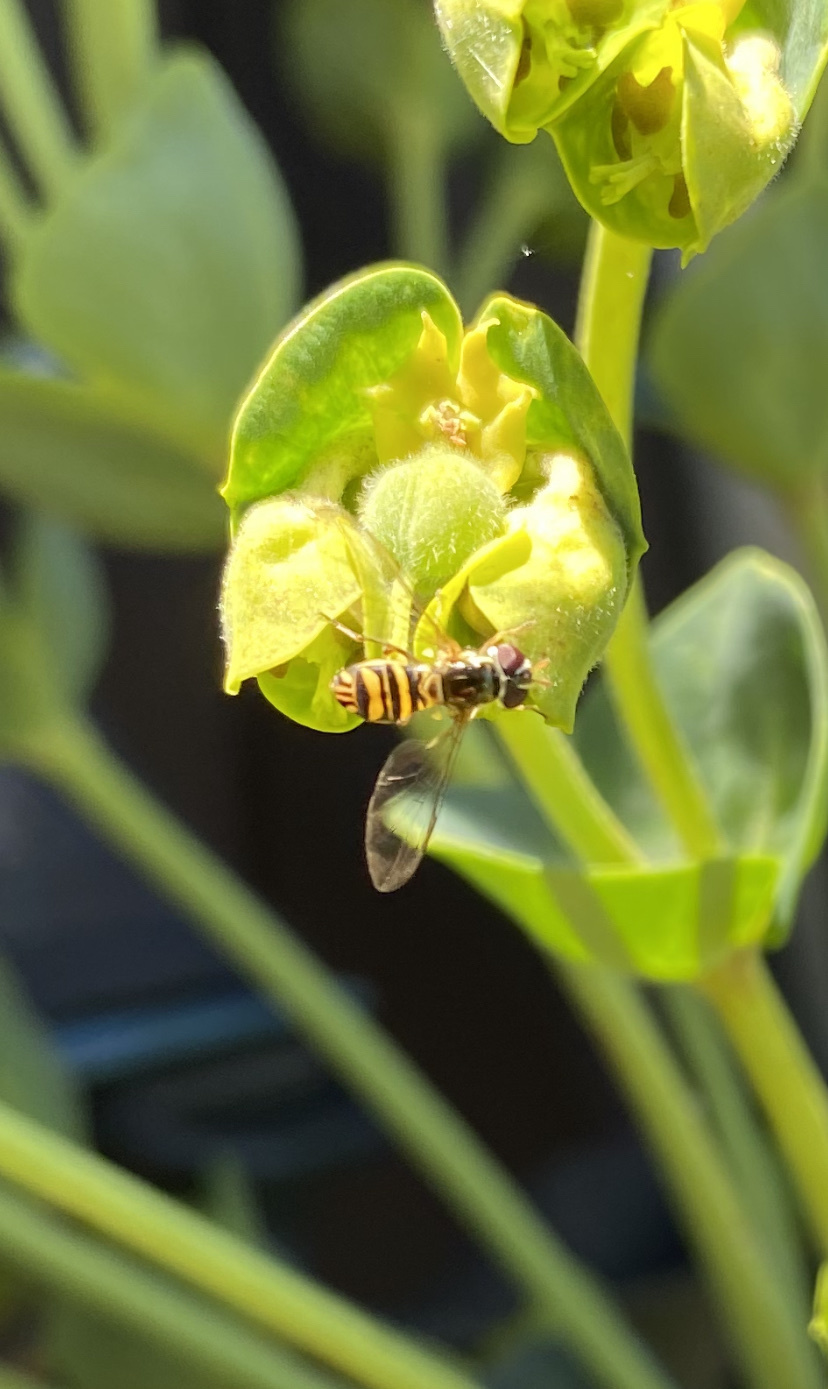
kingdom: Animalia
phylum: Arthropoda
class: Insecta
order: Diptera
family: Syrphidae
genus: Allograpta
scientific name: Allograpta obliqua
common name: Common oblique syrphid
